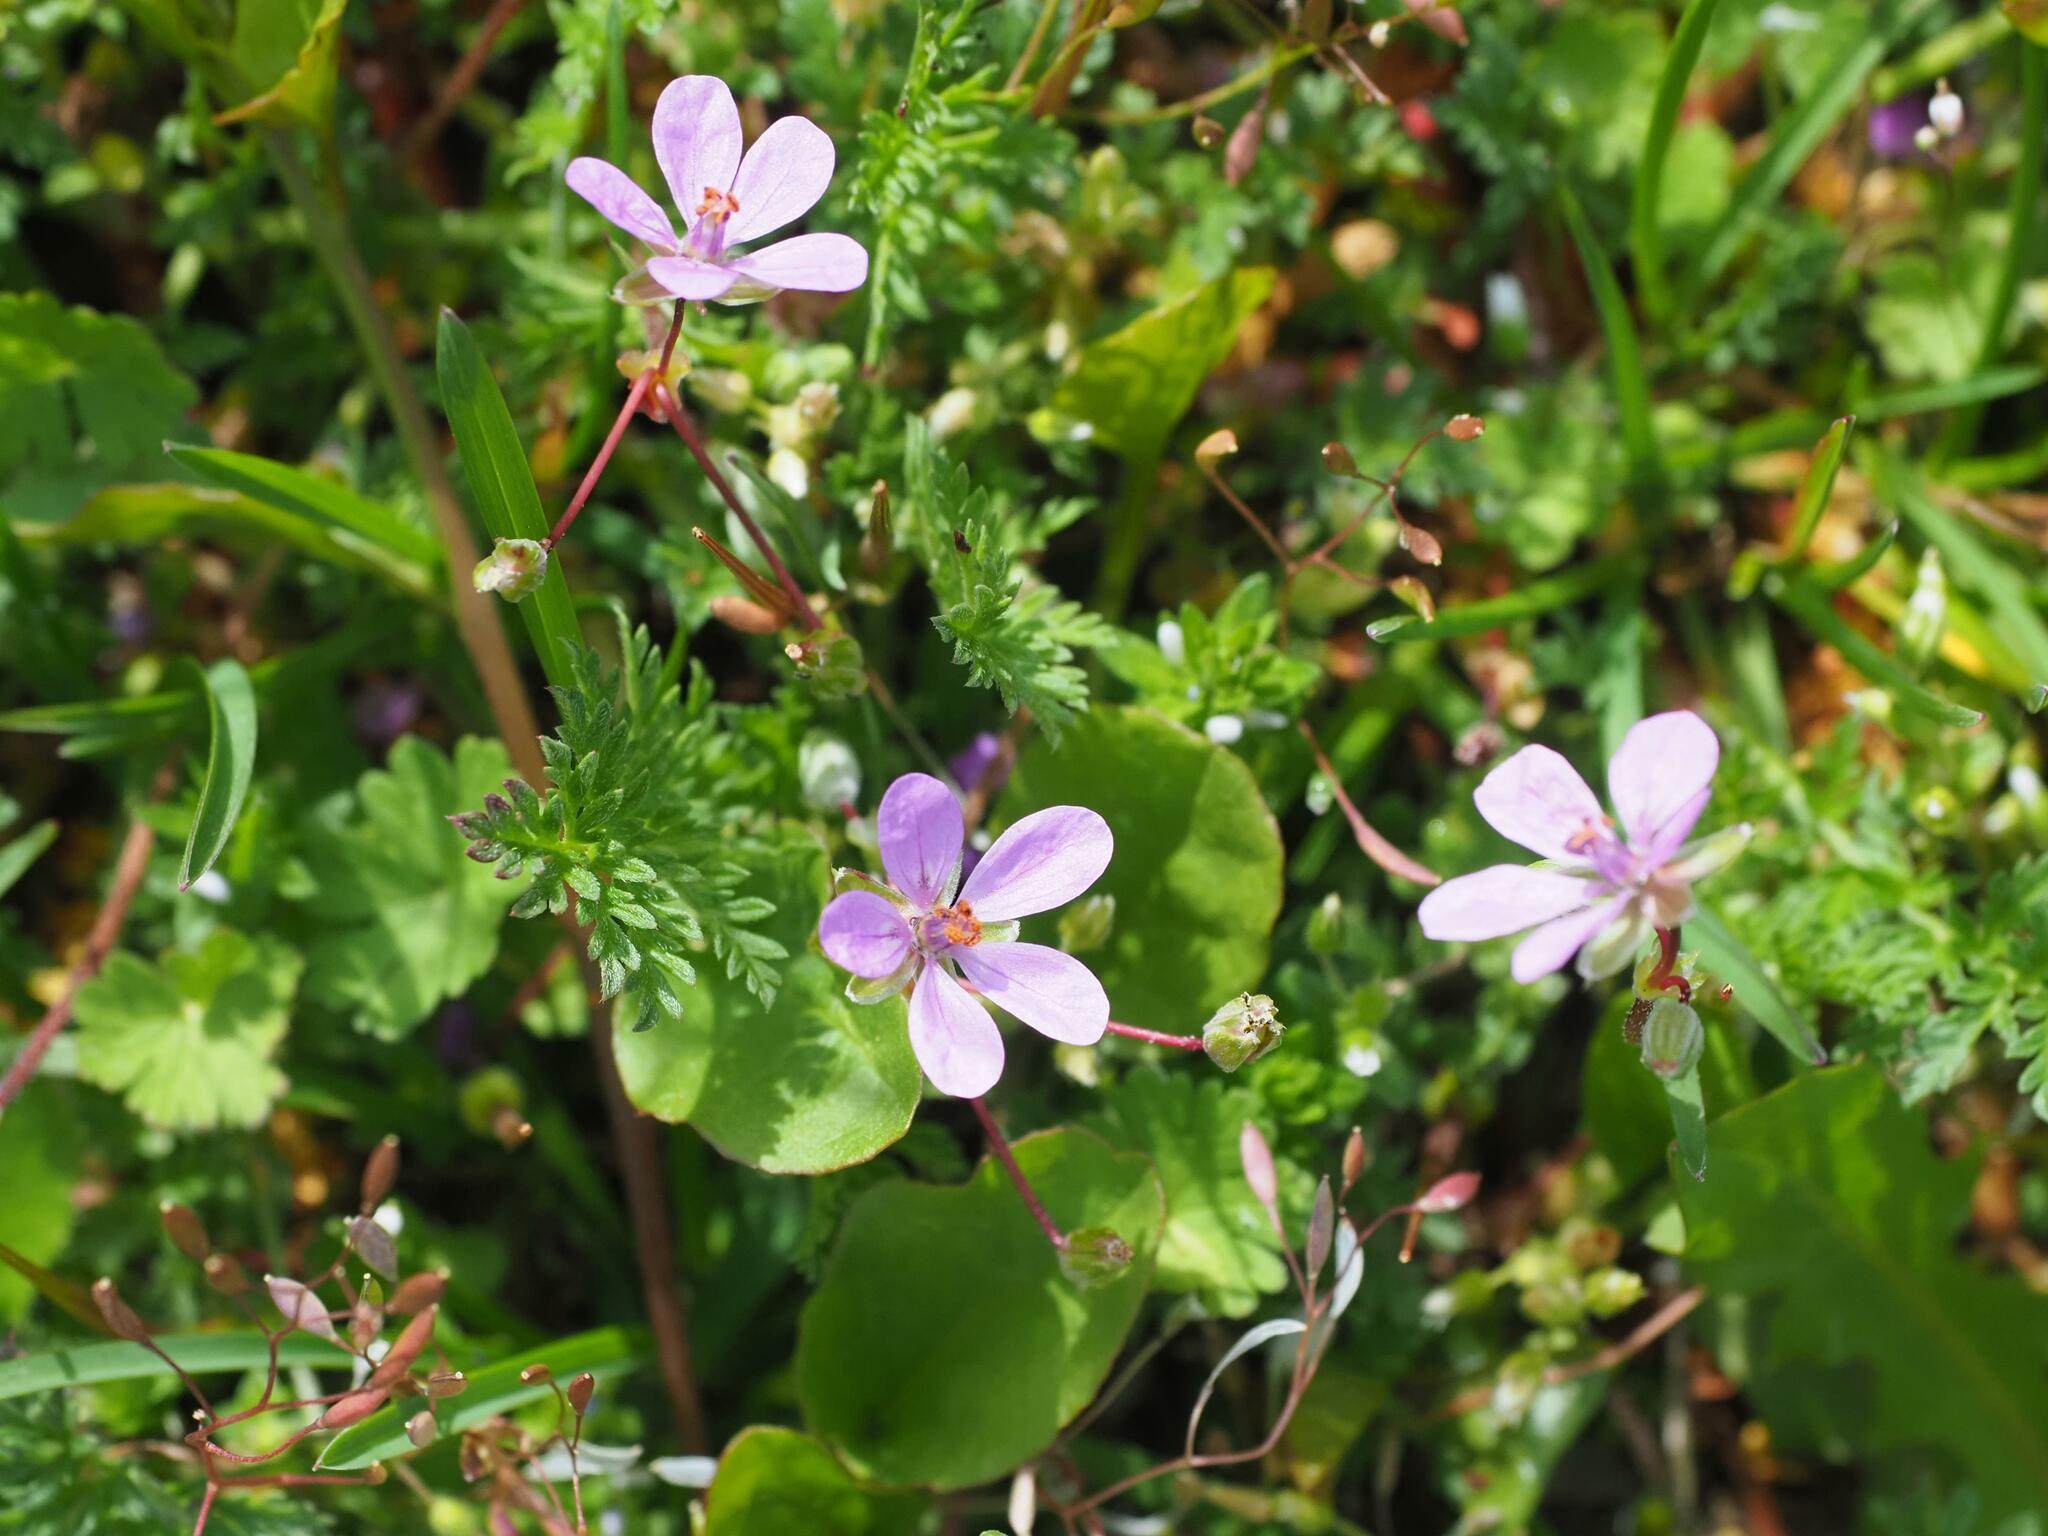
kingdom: Plantae
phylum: Tracheophyta
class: Magnoliopsida
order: Geraniales
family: Geraniaceae
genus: Erodium
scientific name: Erodium cicutarium
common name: Common stork's-bill
